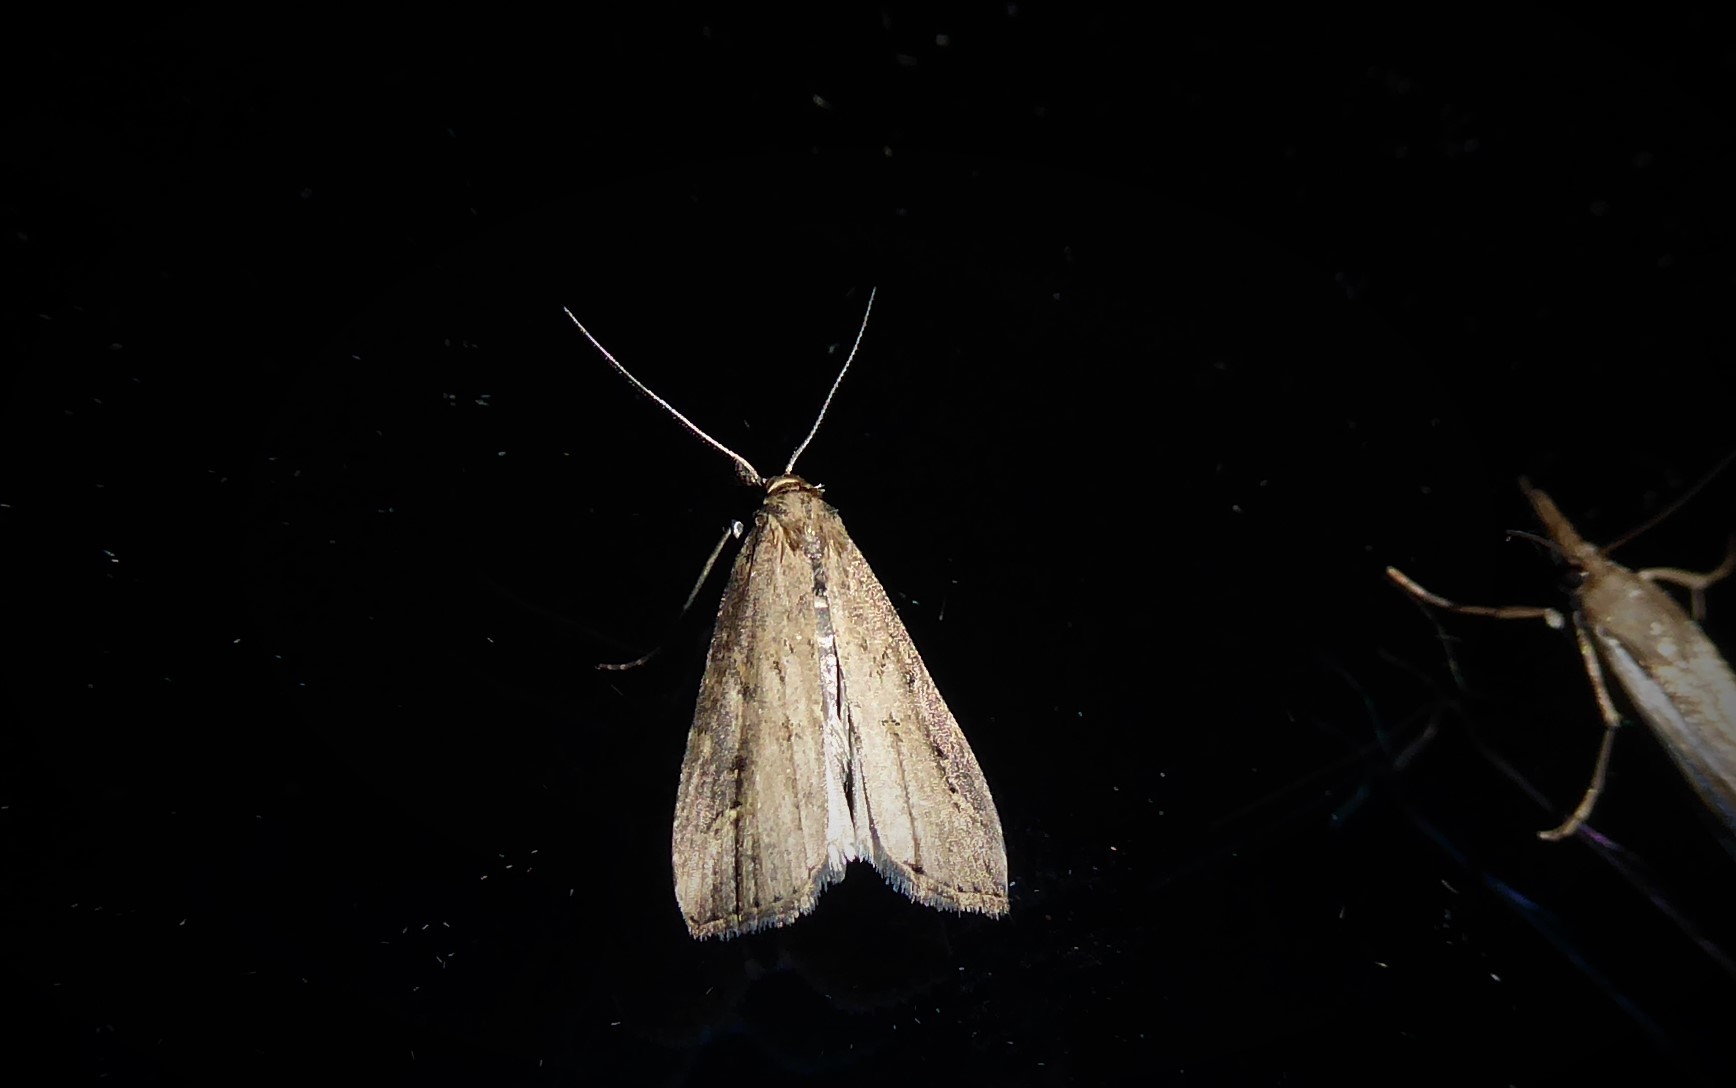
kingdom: Animalia
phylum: Arthropoda
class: Insecta
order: Lepidoptera
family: Erebidae
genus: Schrankia
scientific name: Schrankia costaestrigalis
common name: Pinion-streaked snout
